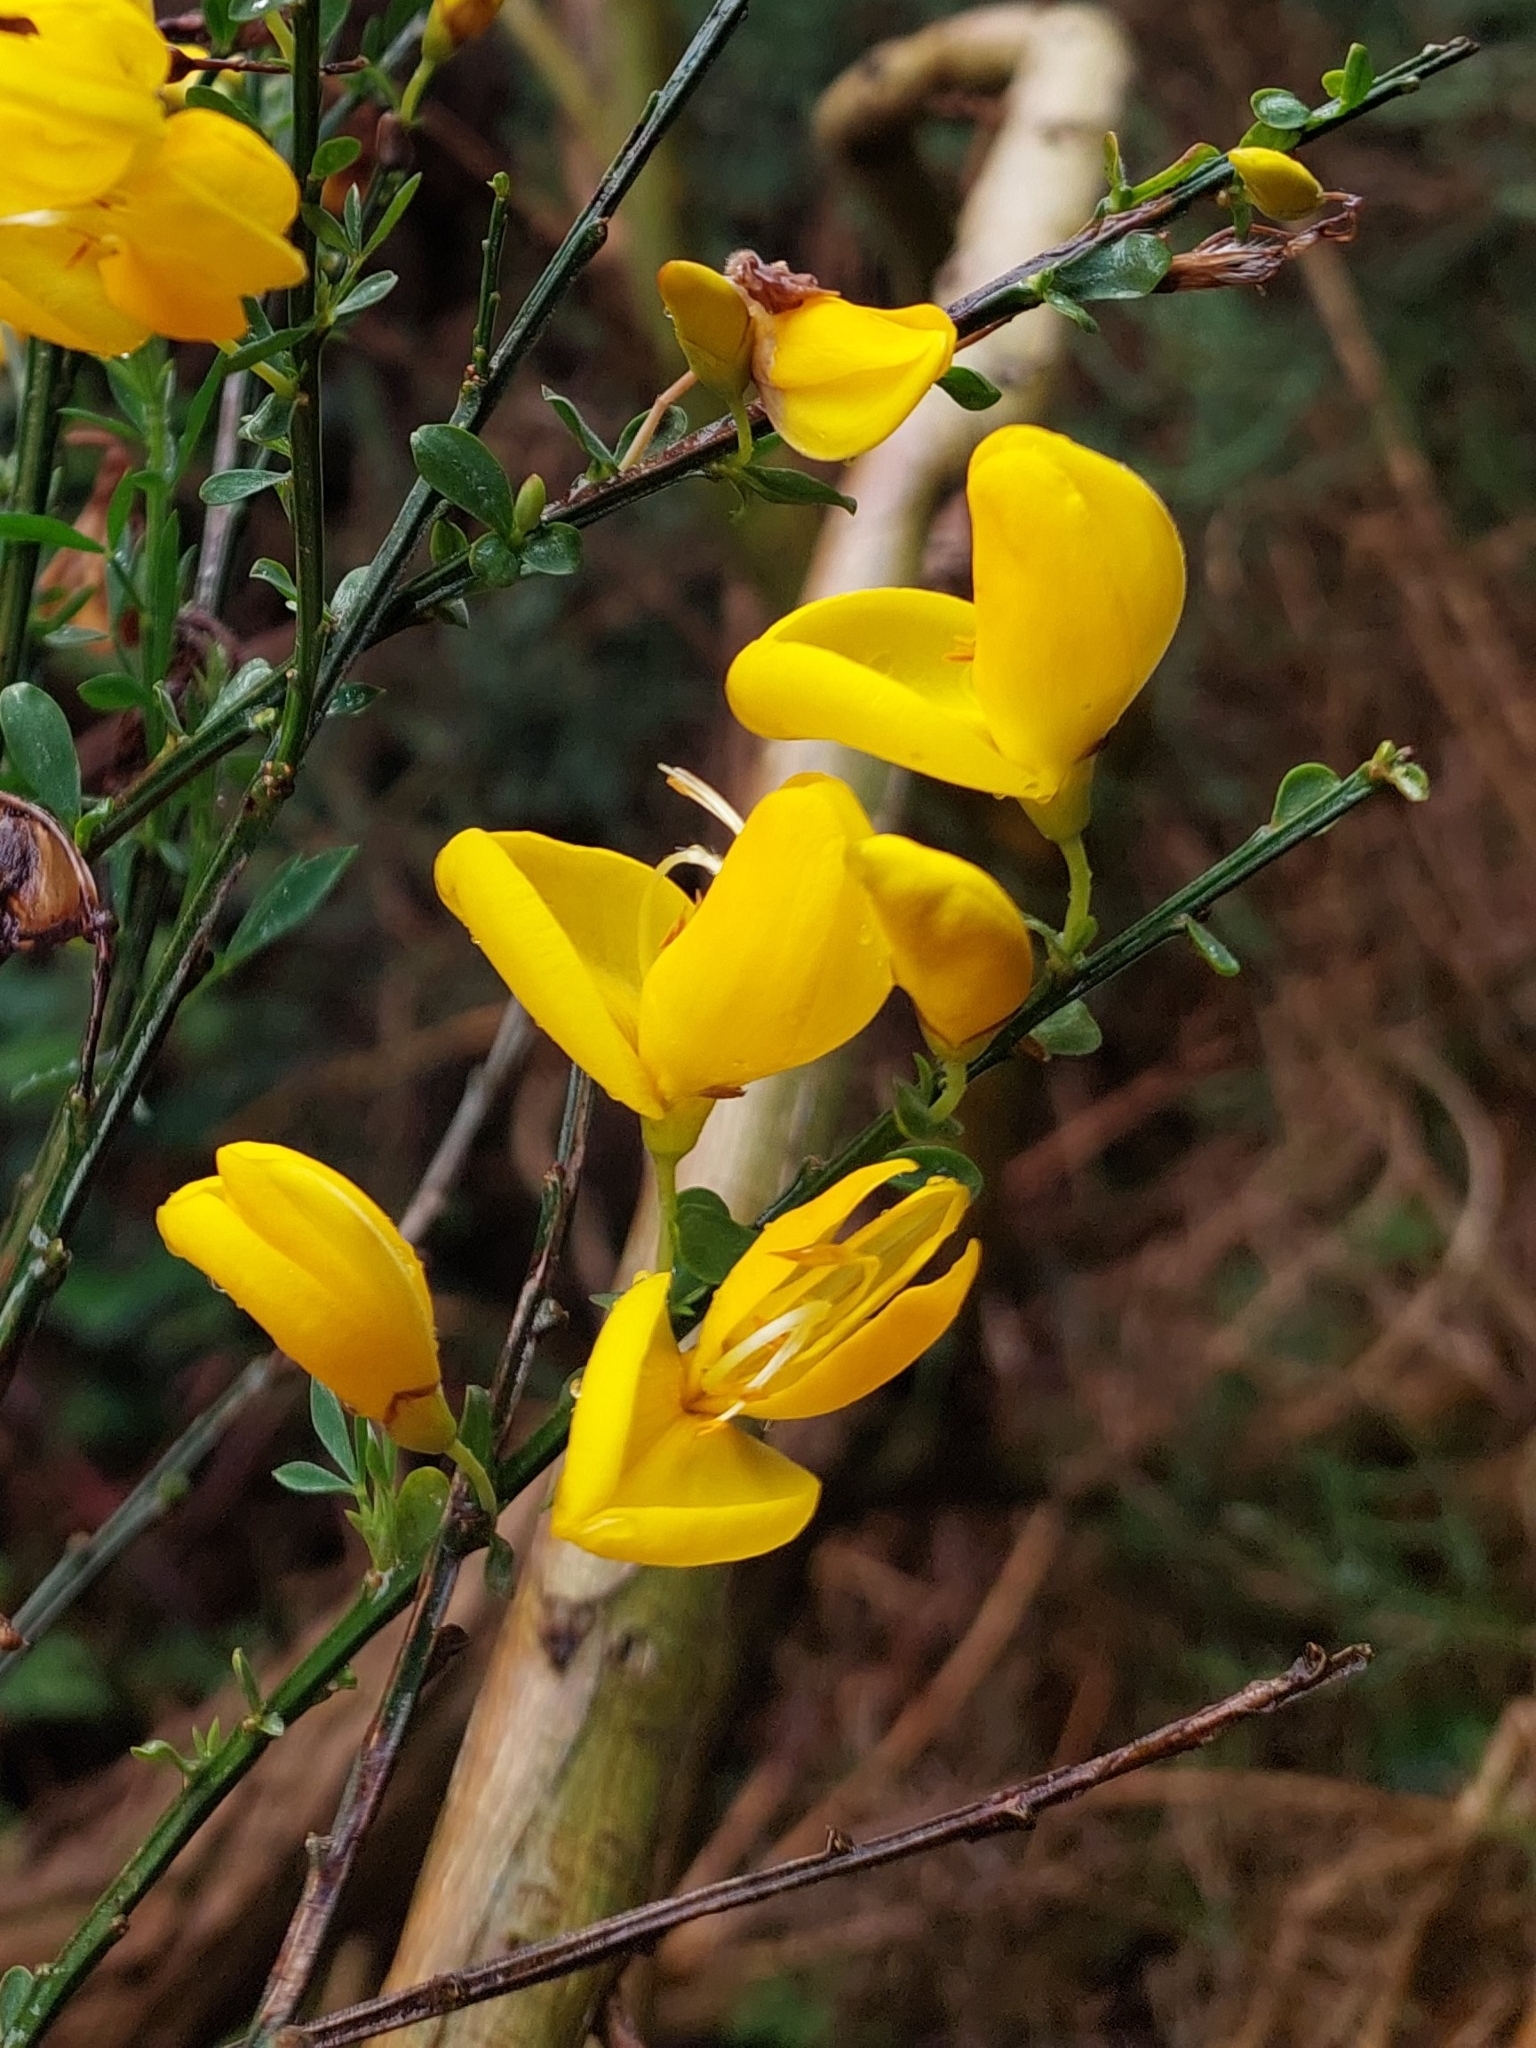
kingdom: Plantae
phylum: Tracheophyta
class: Magnoliopsida
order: Fabales
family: Fabaceae
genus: Cytisus
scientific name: Cytisus scoparius
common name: Scotch broom
